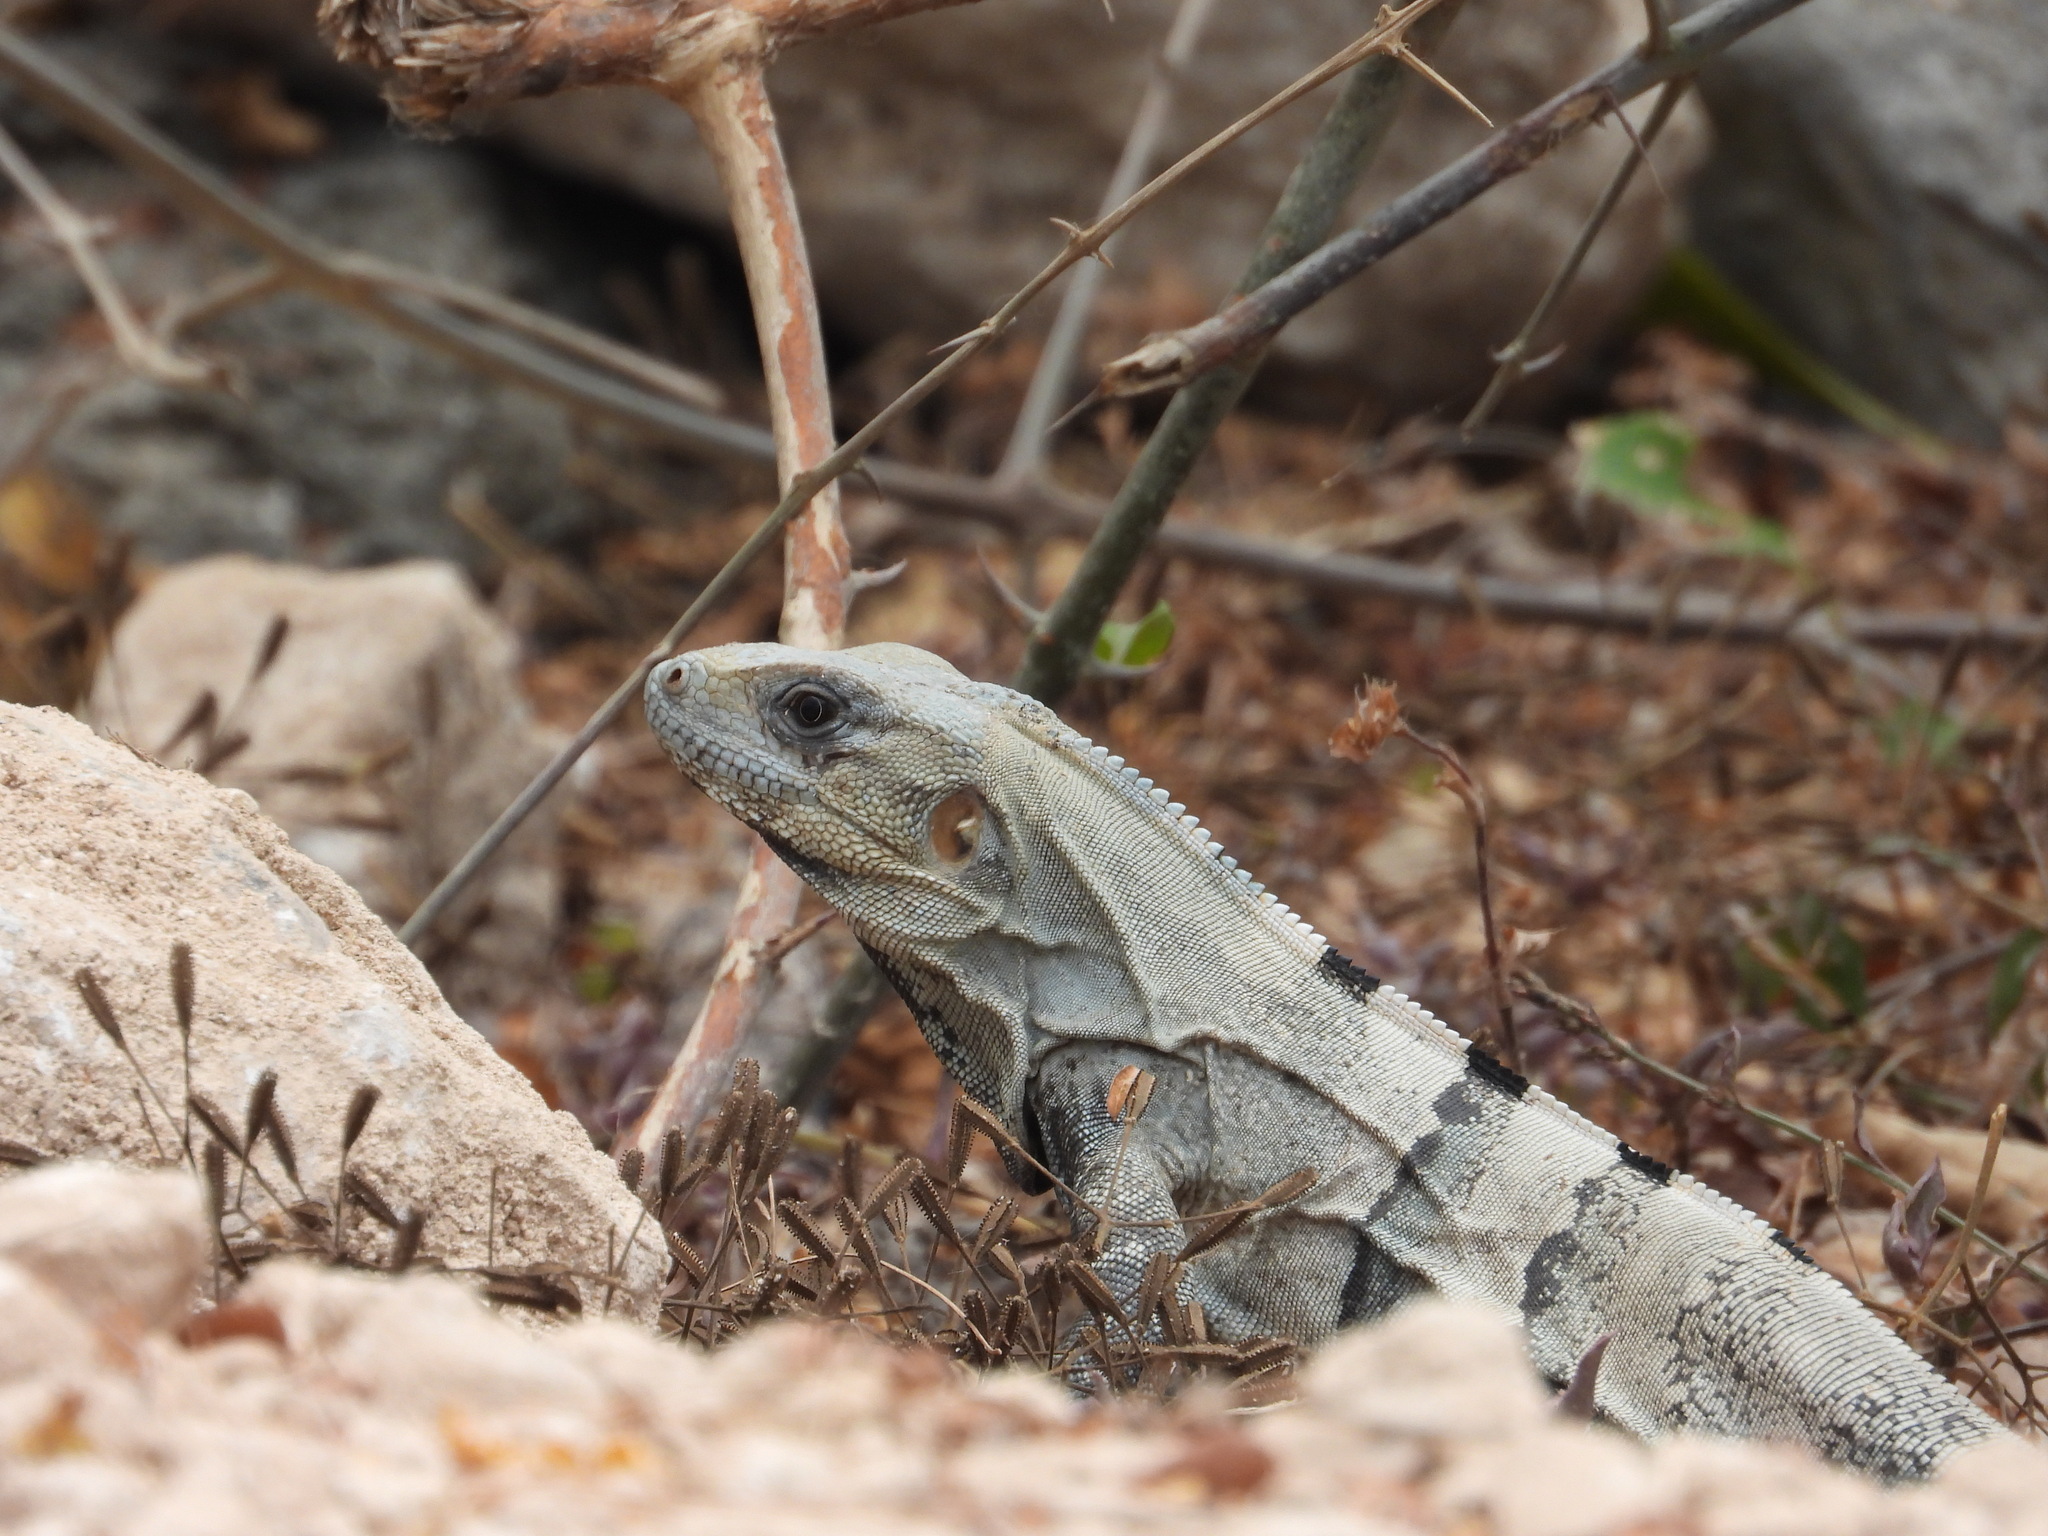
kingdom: Animalia
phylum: Chordata
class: Squamata
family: Iguanidae
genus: Ctenosaura
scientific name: Ctenosaura similis
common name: Black spiny-tailed iguana
